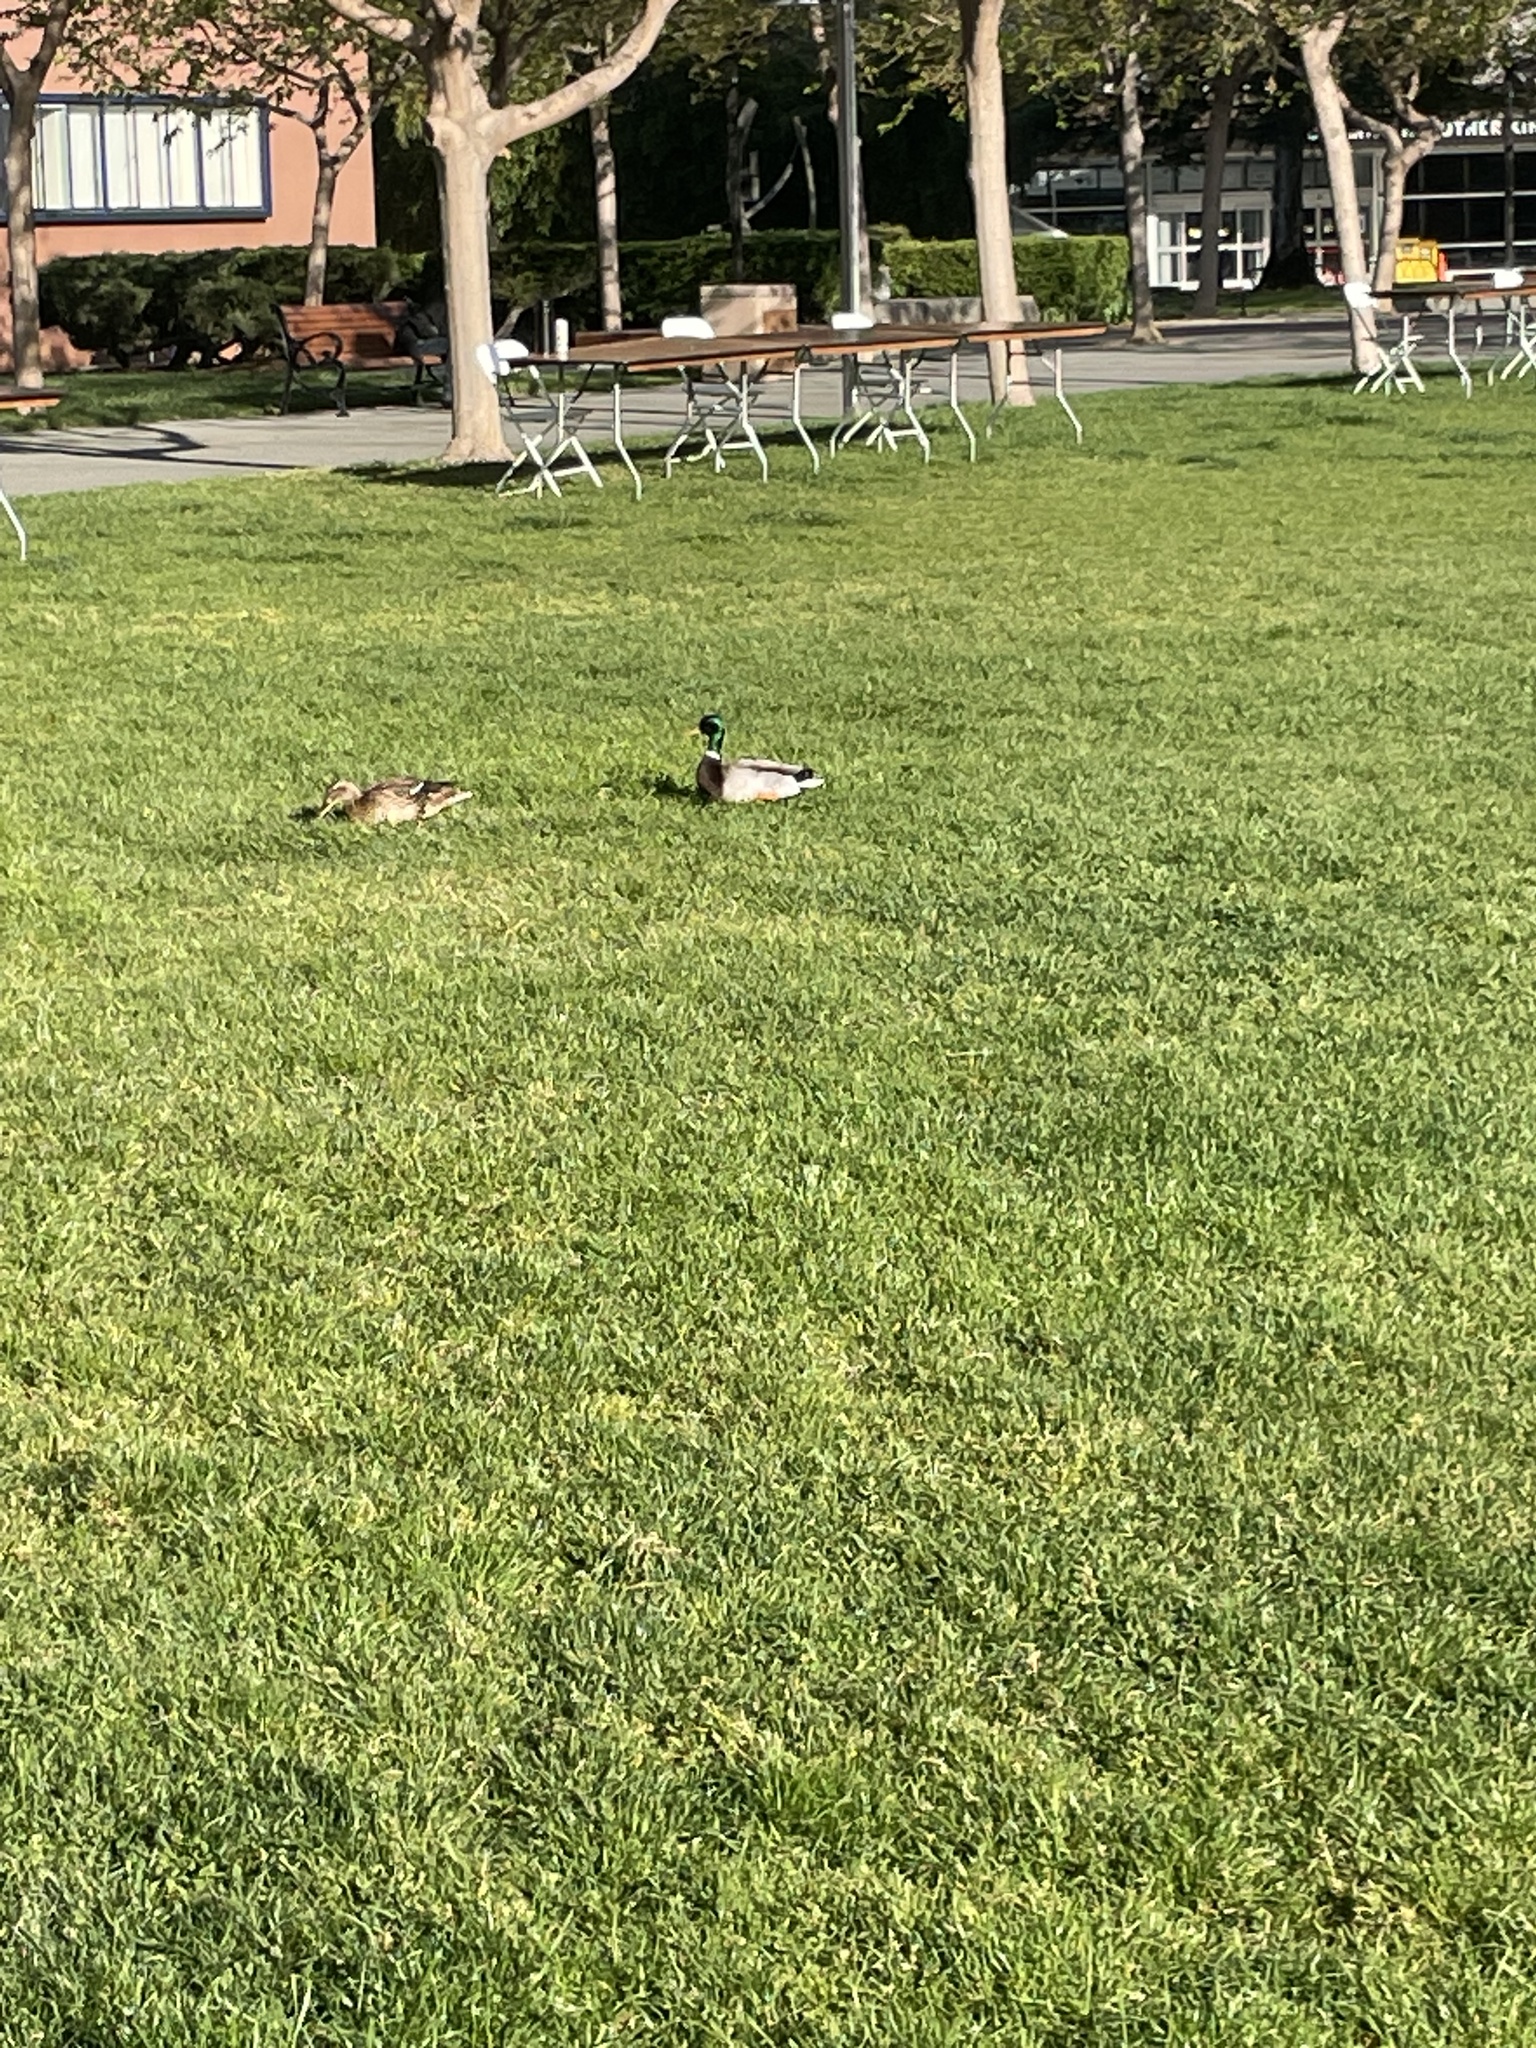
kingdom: Animalia
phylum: Chordata
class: Aves
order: Anseriformes
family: Anatidae
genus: Anas
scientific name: Anas platyrhynchos
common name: Mallard
